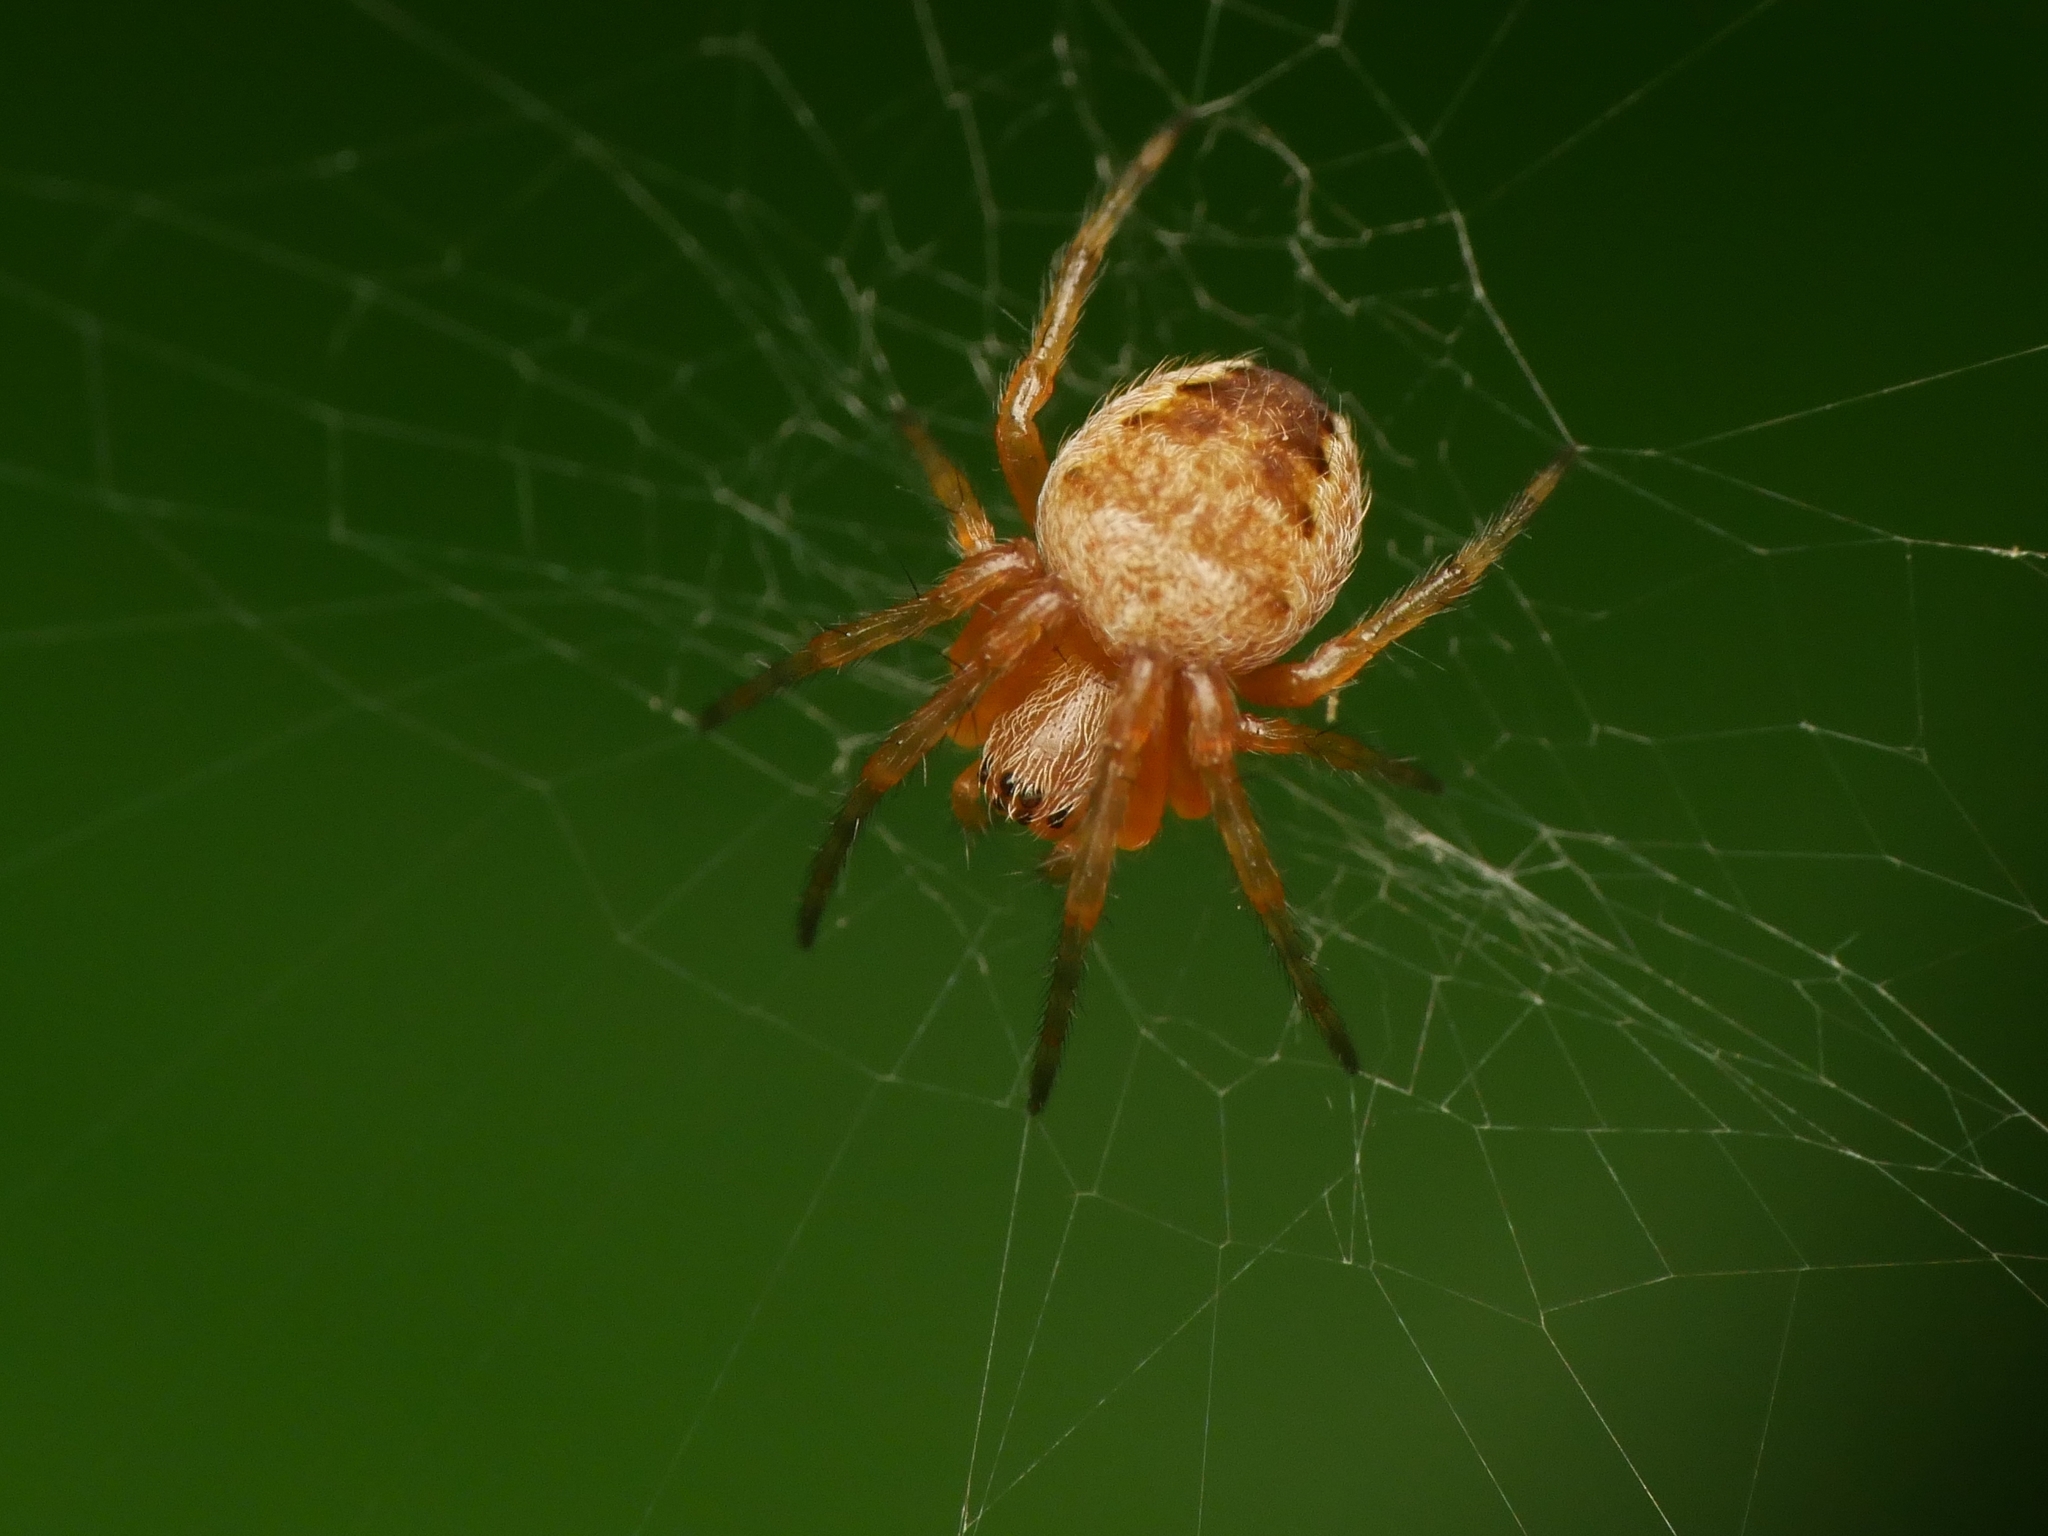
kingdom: Animalia
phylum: Arthropoda
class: Arachnida
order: Araneae
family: Araneidae
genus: Araneus
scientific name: Araneus diadematus
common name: Cross orbweaver
